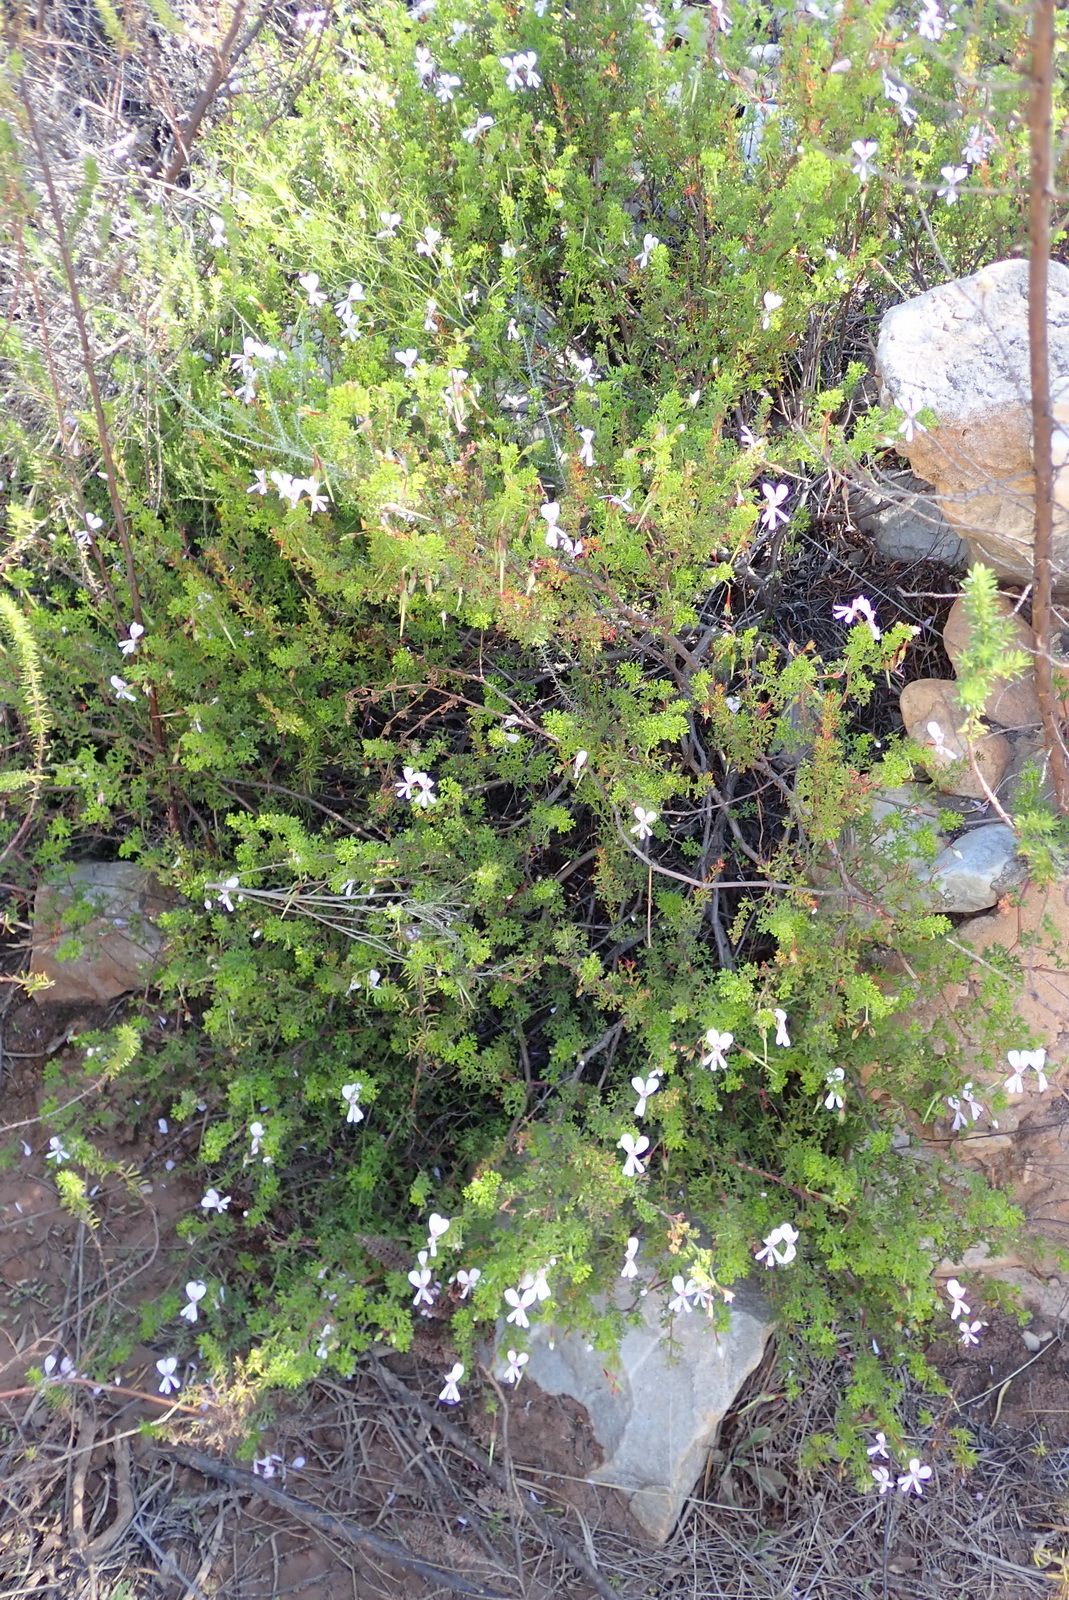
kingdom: Plantae
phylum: Tracheophyta
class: Magnoliopsida
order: Geraniales
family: Geraniaceae
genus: Pelargonium
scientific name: Pelargonium fruticosum
